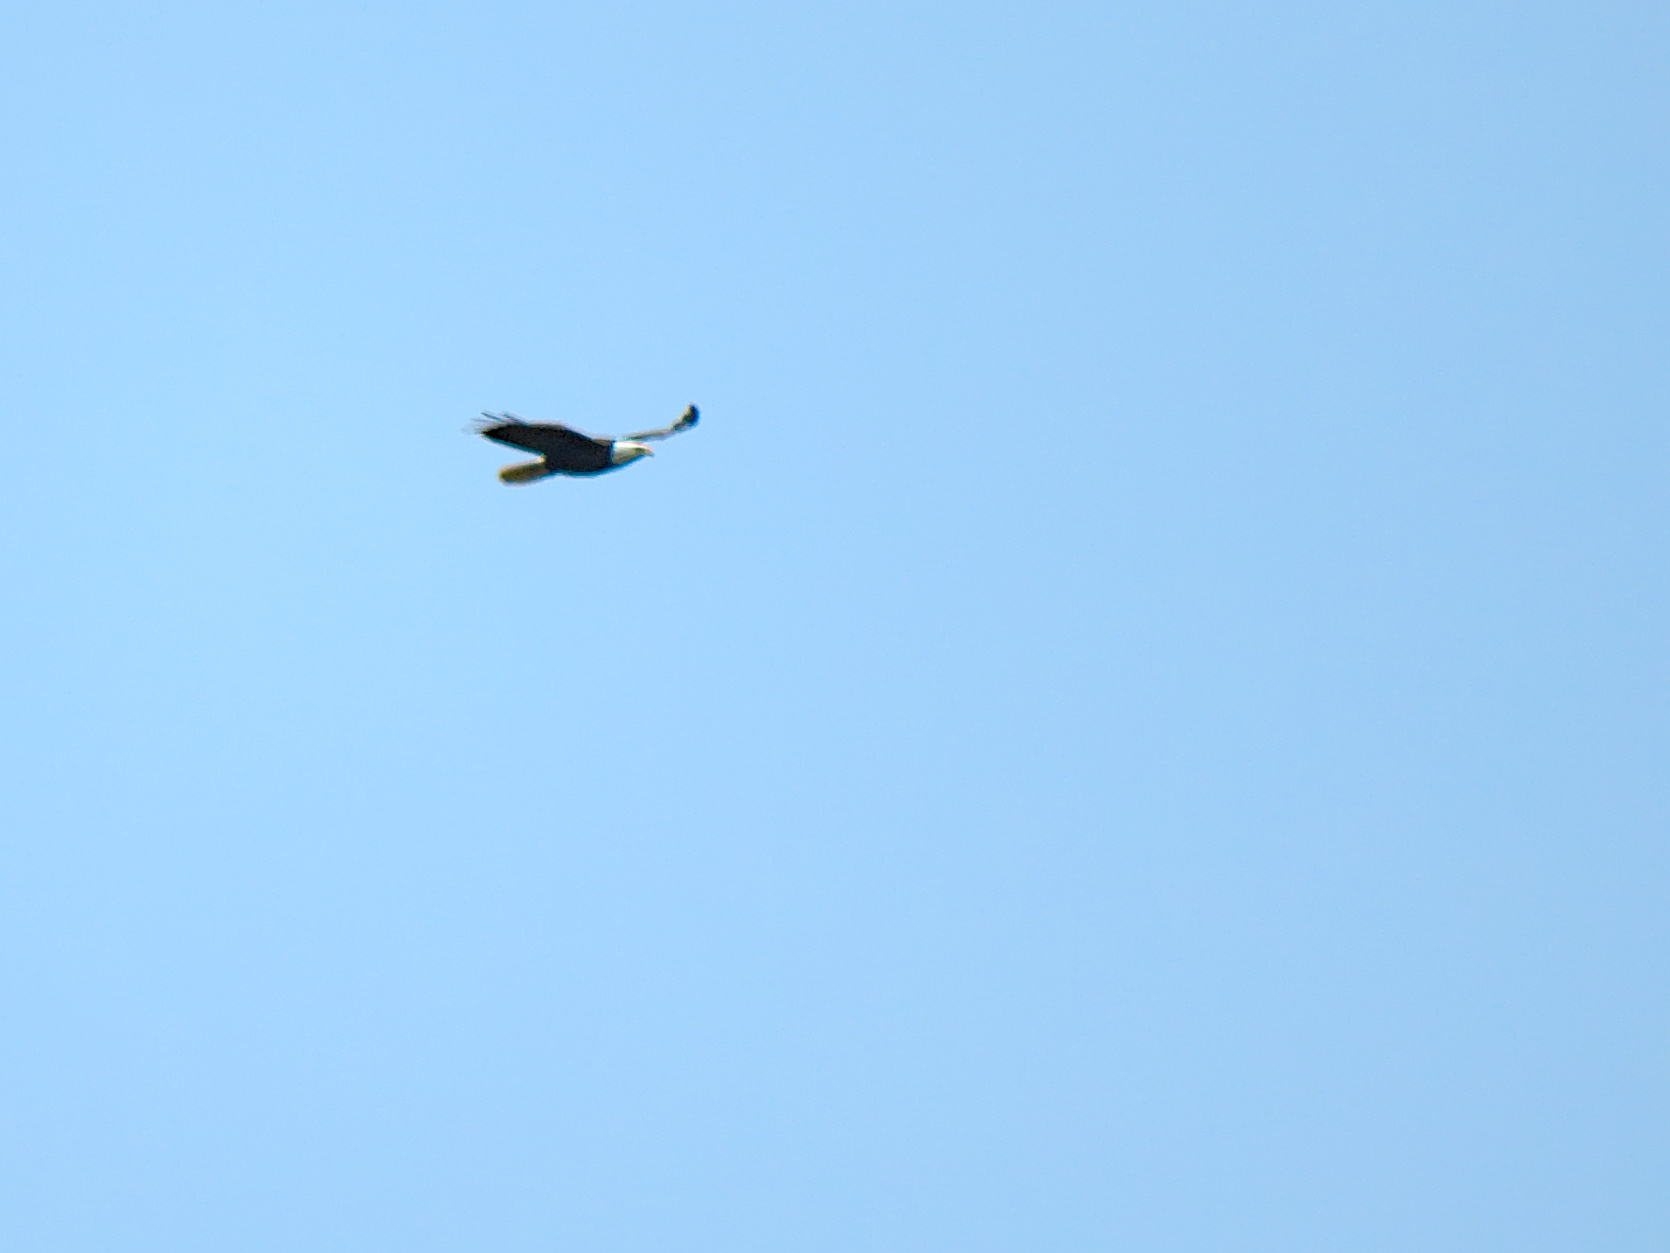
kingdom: Animalia
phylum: Chordata
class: Aves
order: Accipitriformes
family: Accipitridae
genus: Haliaeetus
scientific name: Haliaeetus leucocephalus
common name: Bald eagle
